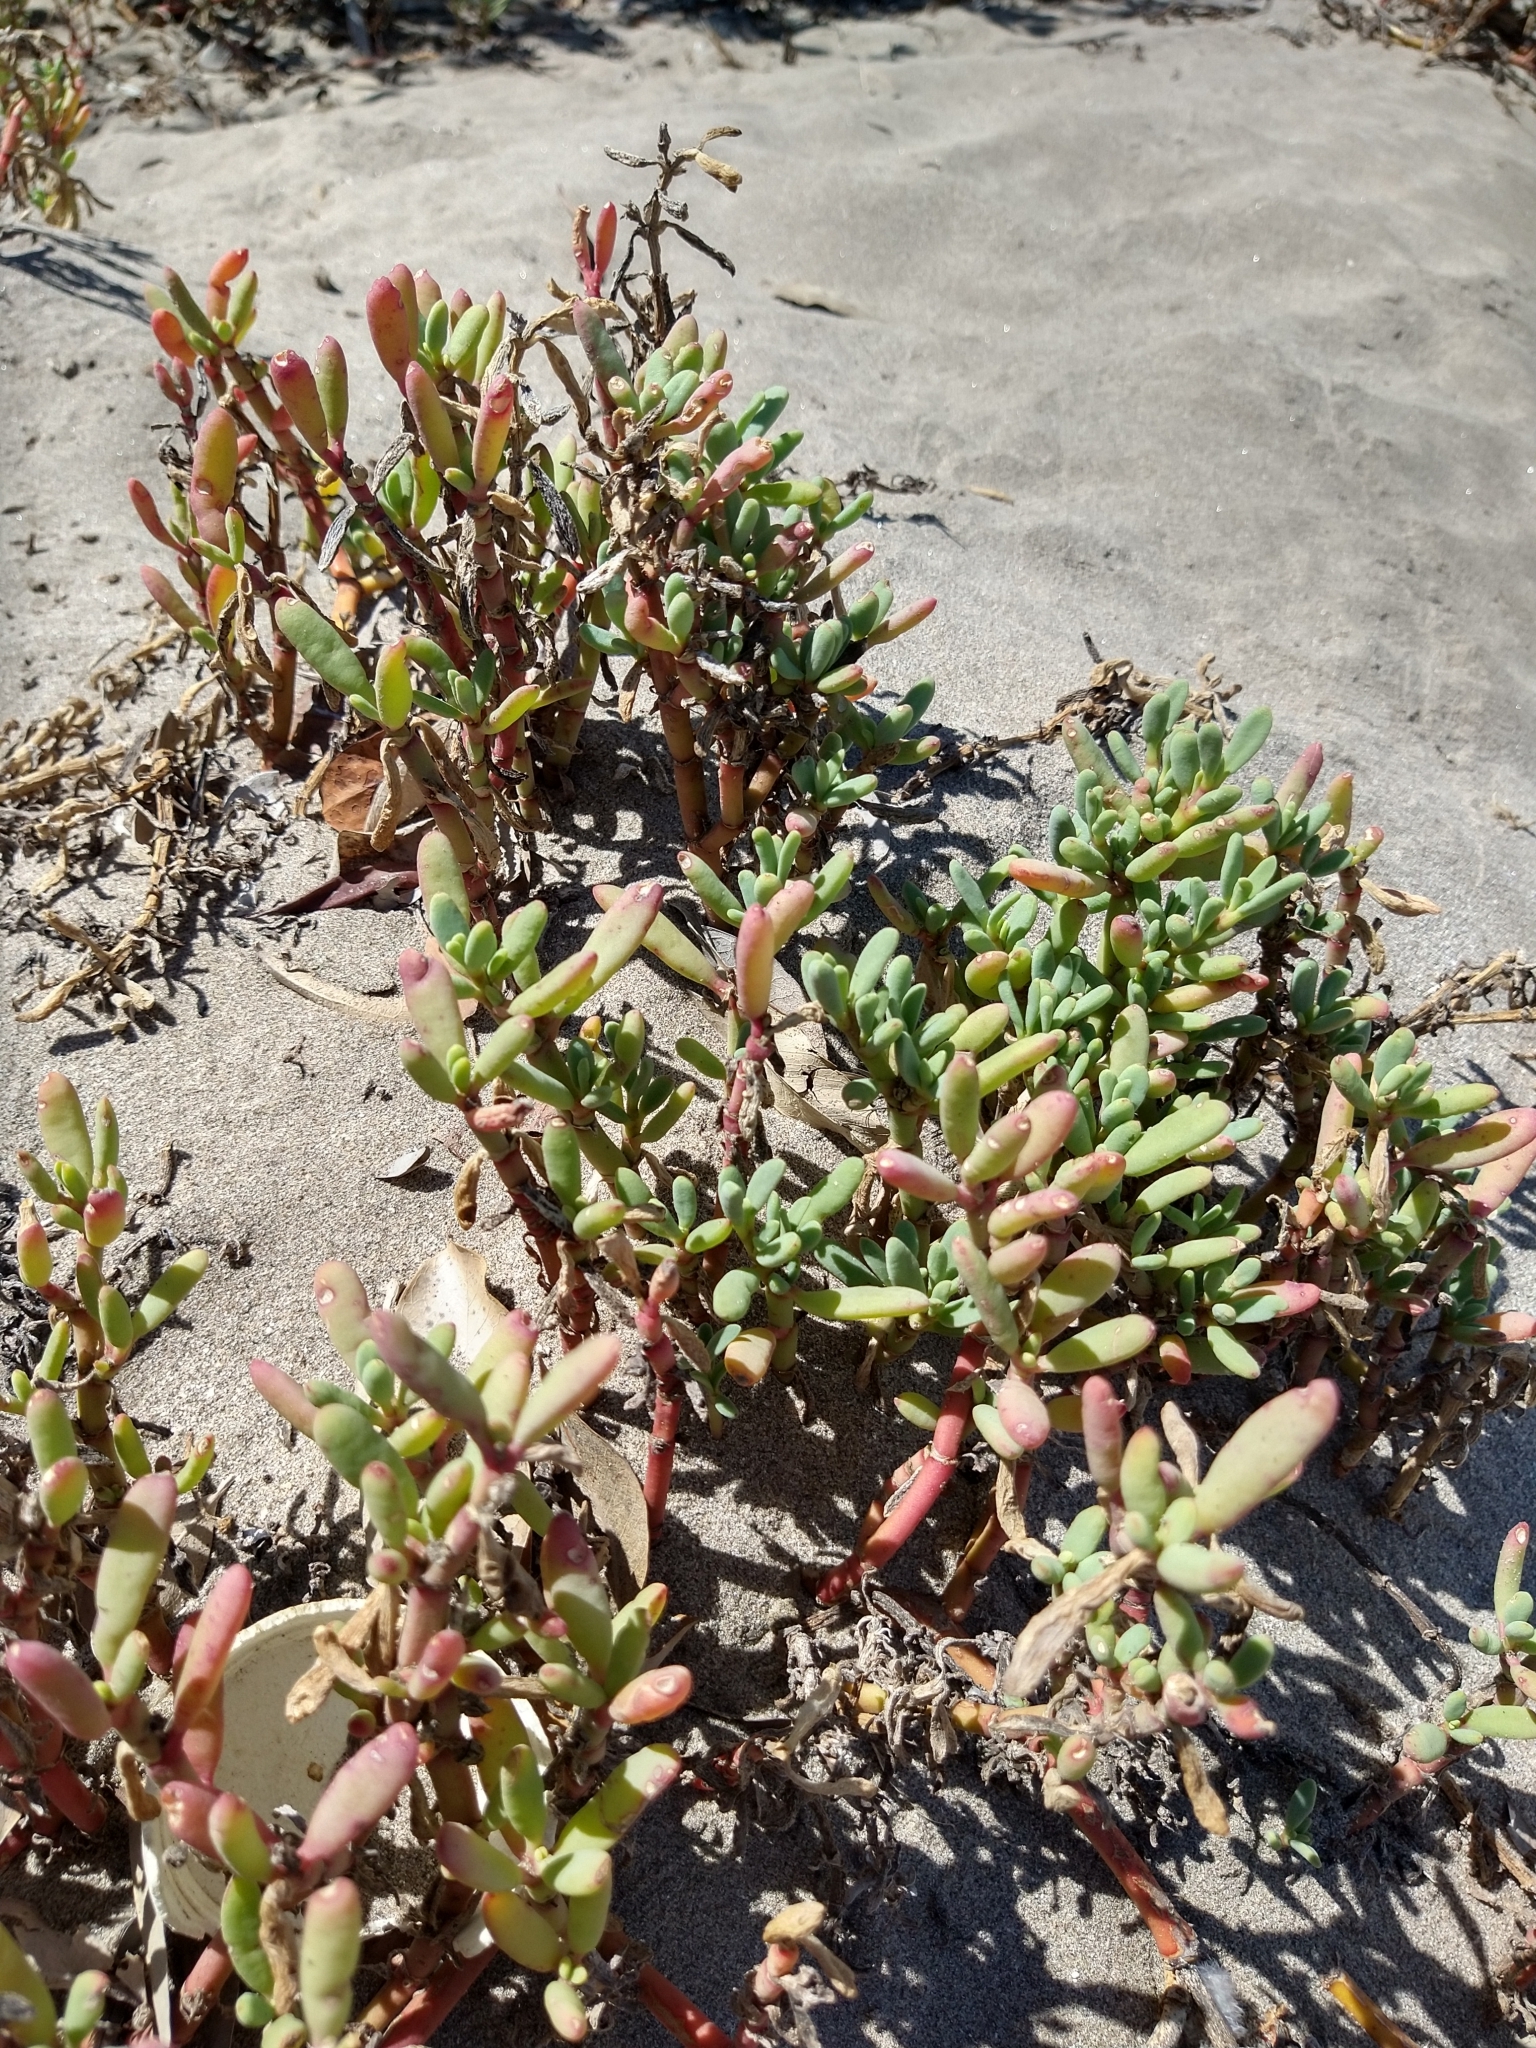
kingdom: Plantae
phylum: Tracheophyta
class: Magnoliopsida
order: Caryophyllales
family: Aizoaceae
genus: Sesuvium
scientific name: Sesuvium portulacastrum
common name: Sea-purslane
